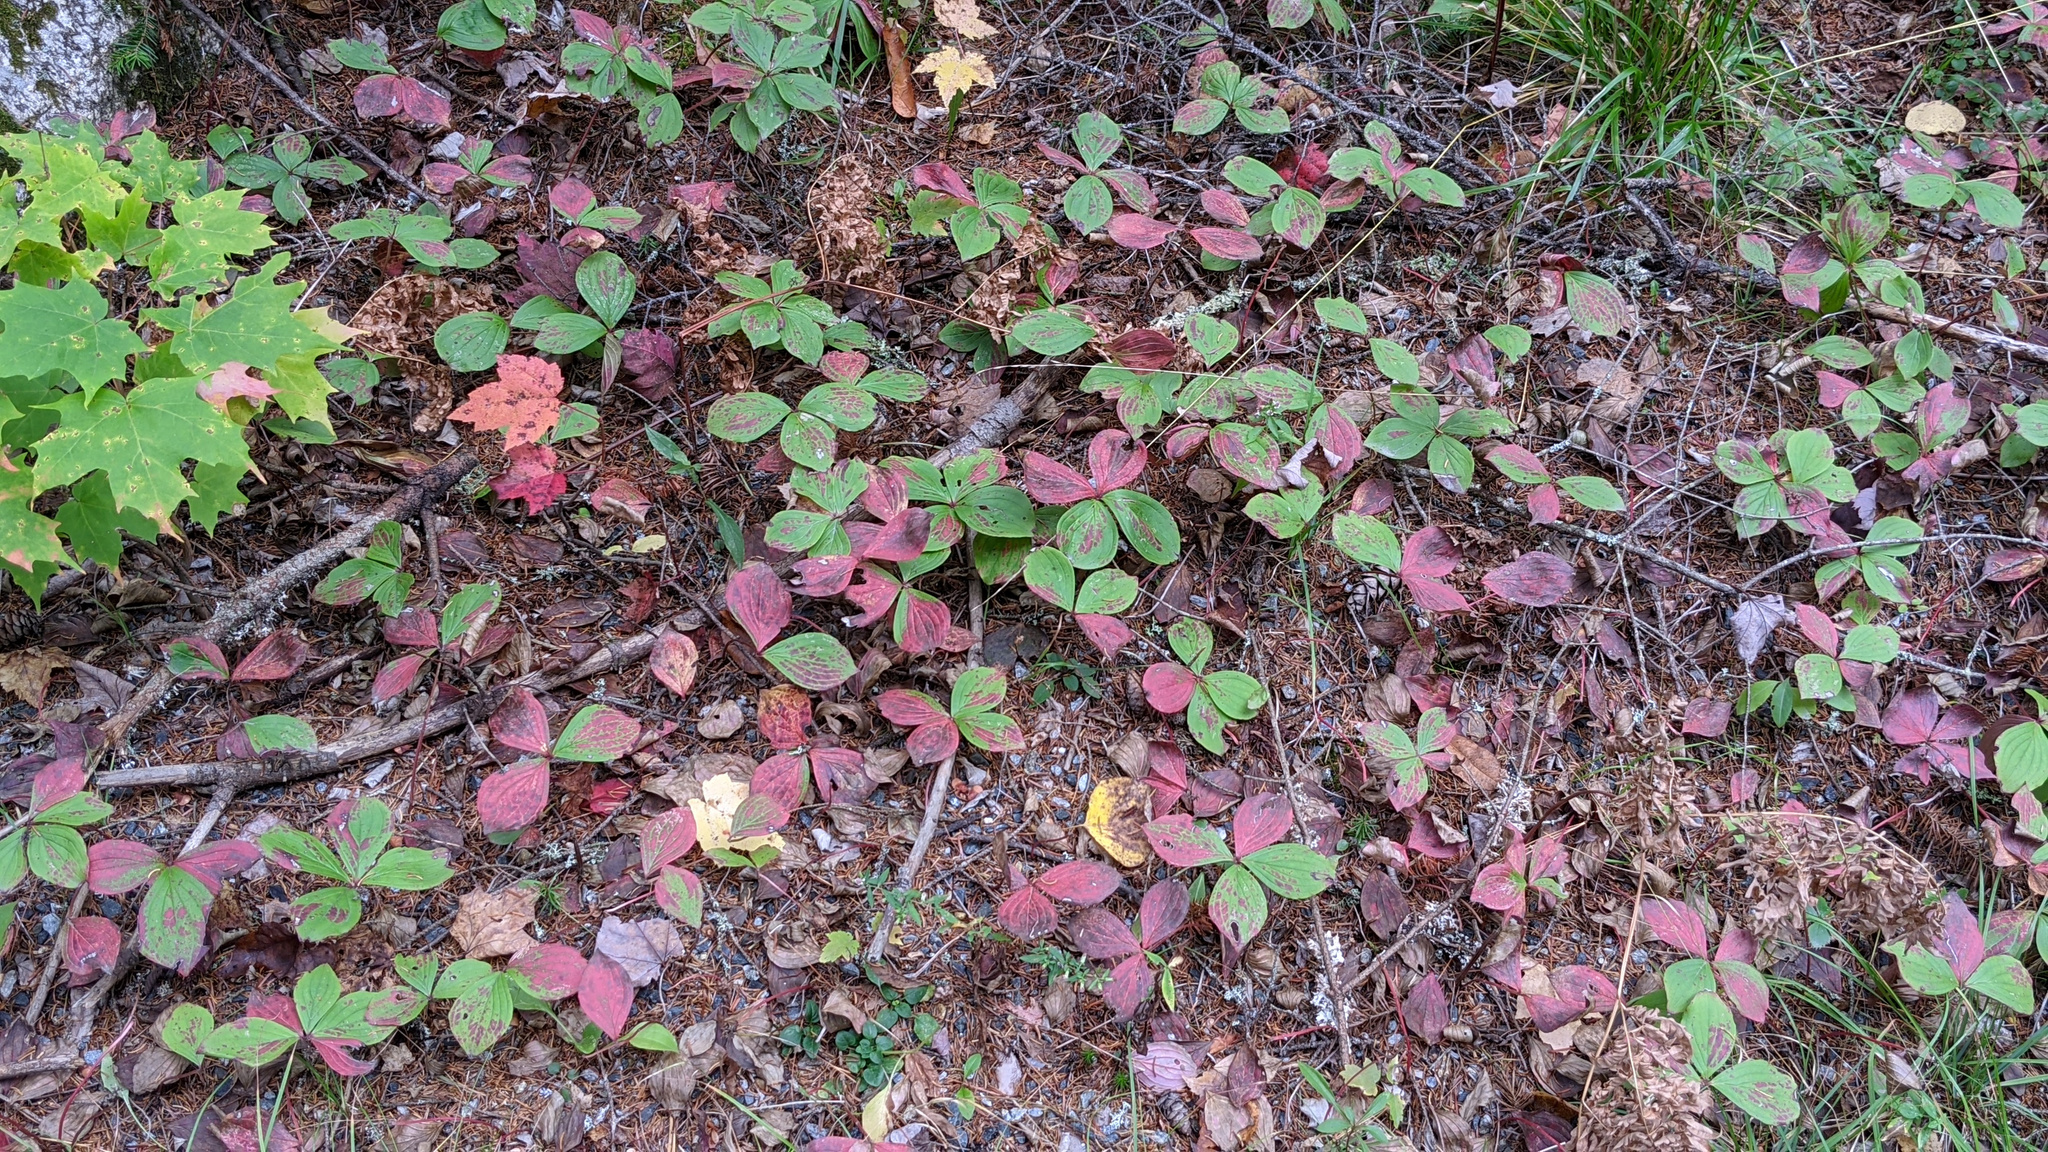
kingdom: Plantae
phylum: Tracheophyta
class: Magnoliopsida
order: Cornales
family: Cornaceae
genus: Cornus
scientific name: Cornus canadensis
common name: Creeping dogwood
